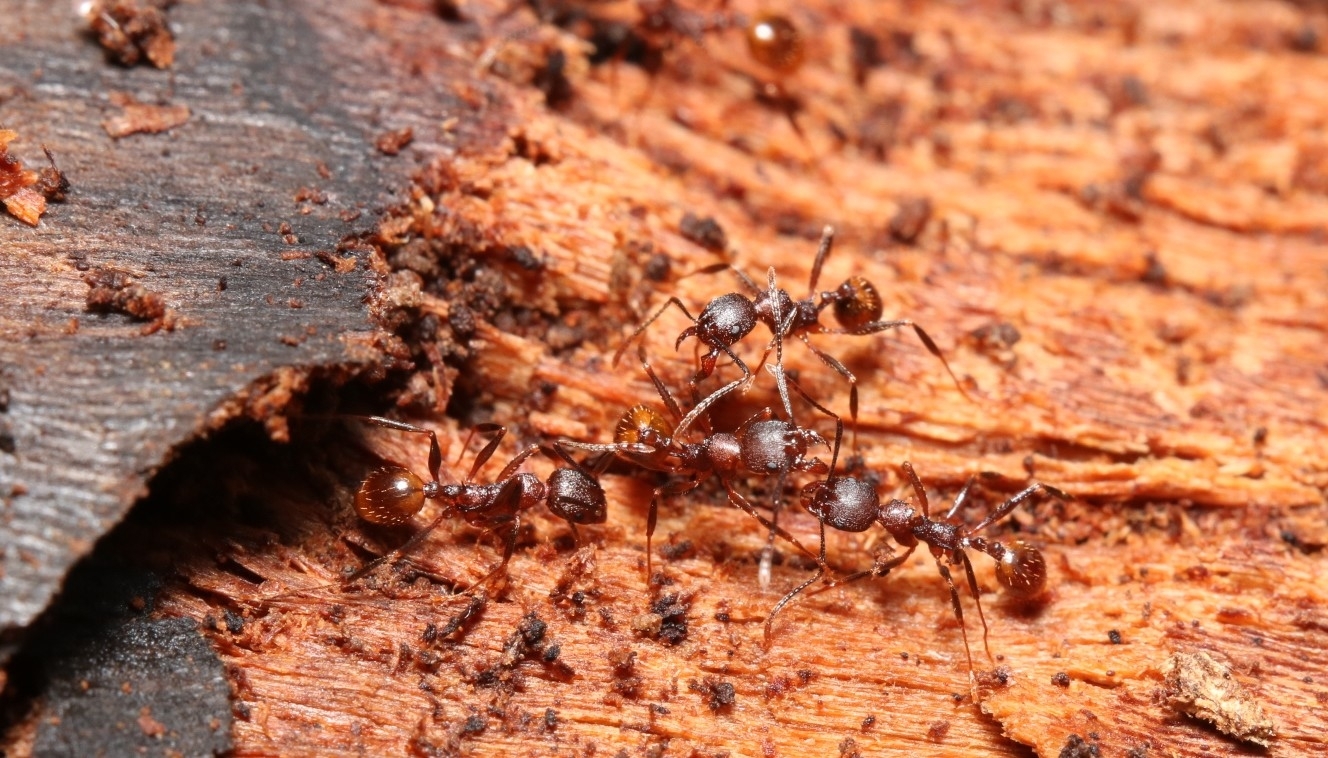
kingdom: Animalia
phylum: Arthropoda
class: Insecta
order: Hymenoptera
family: Formicidae
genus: Aphaenogaster
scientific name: Aphaenogaster fulva
